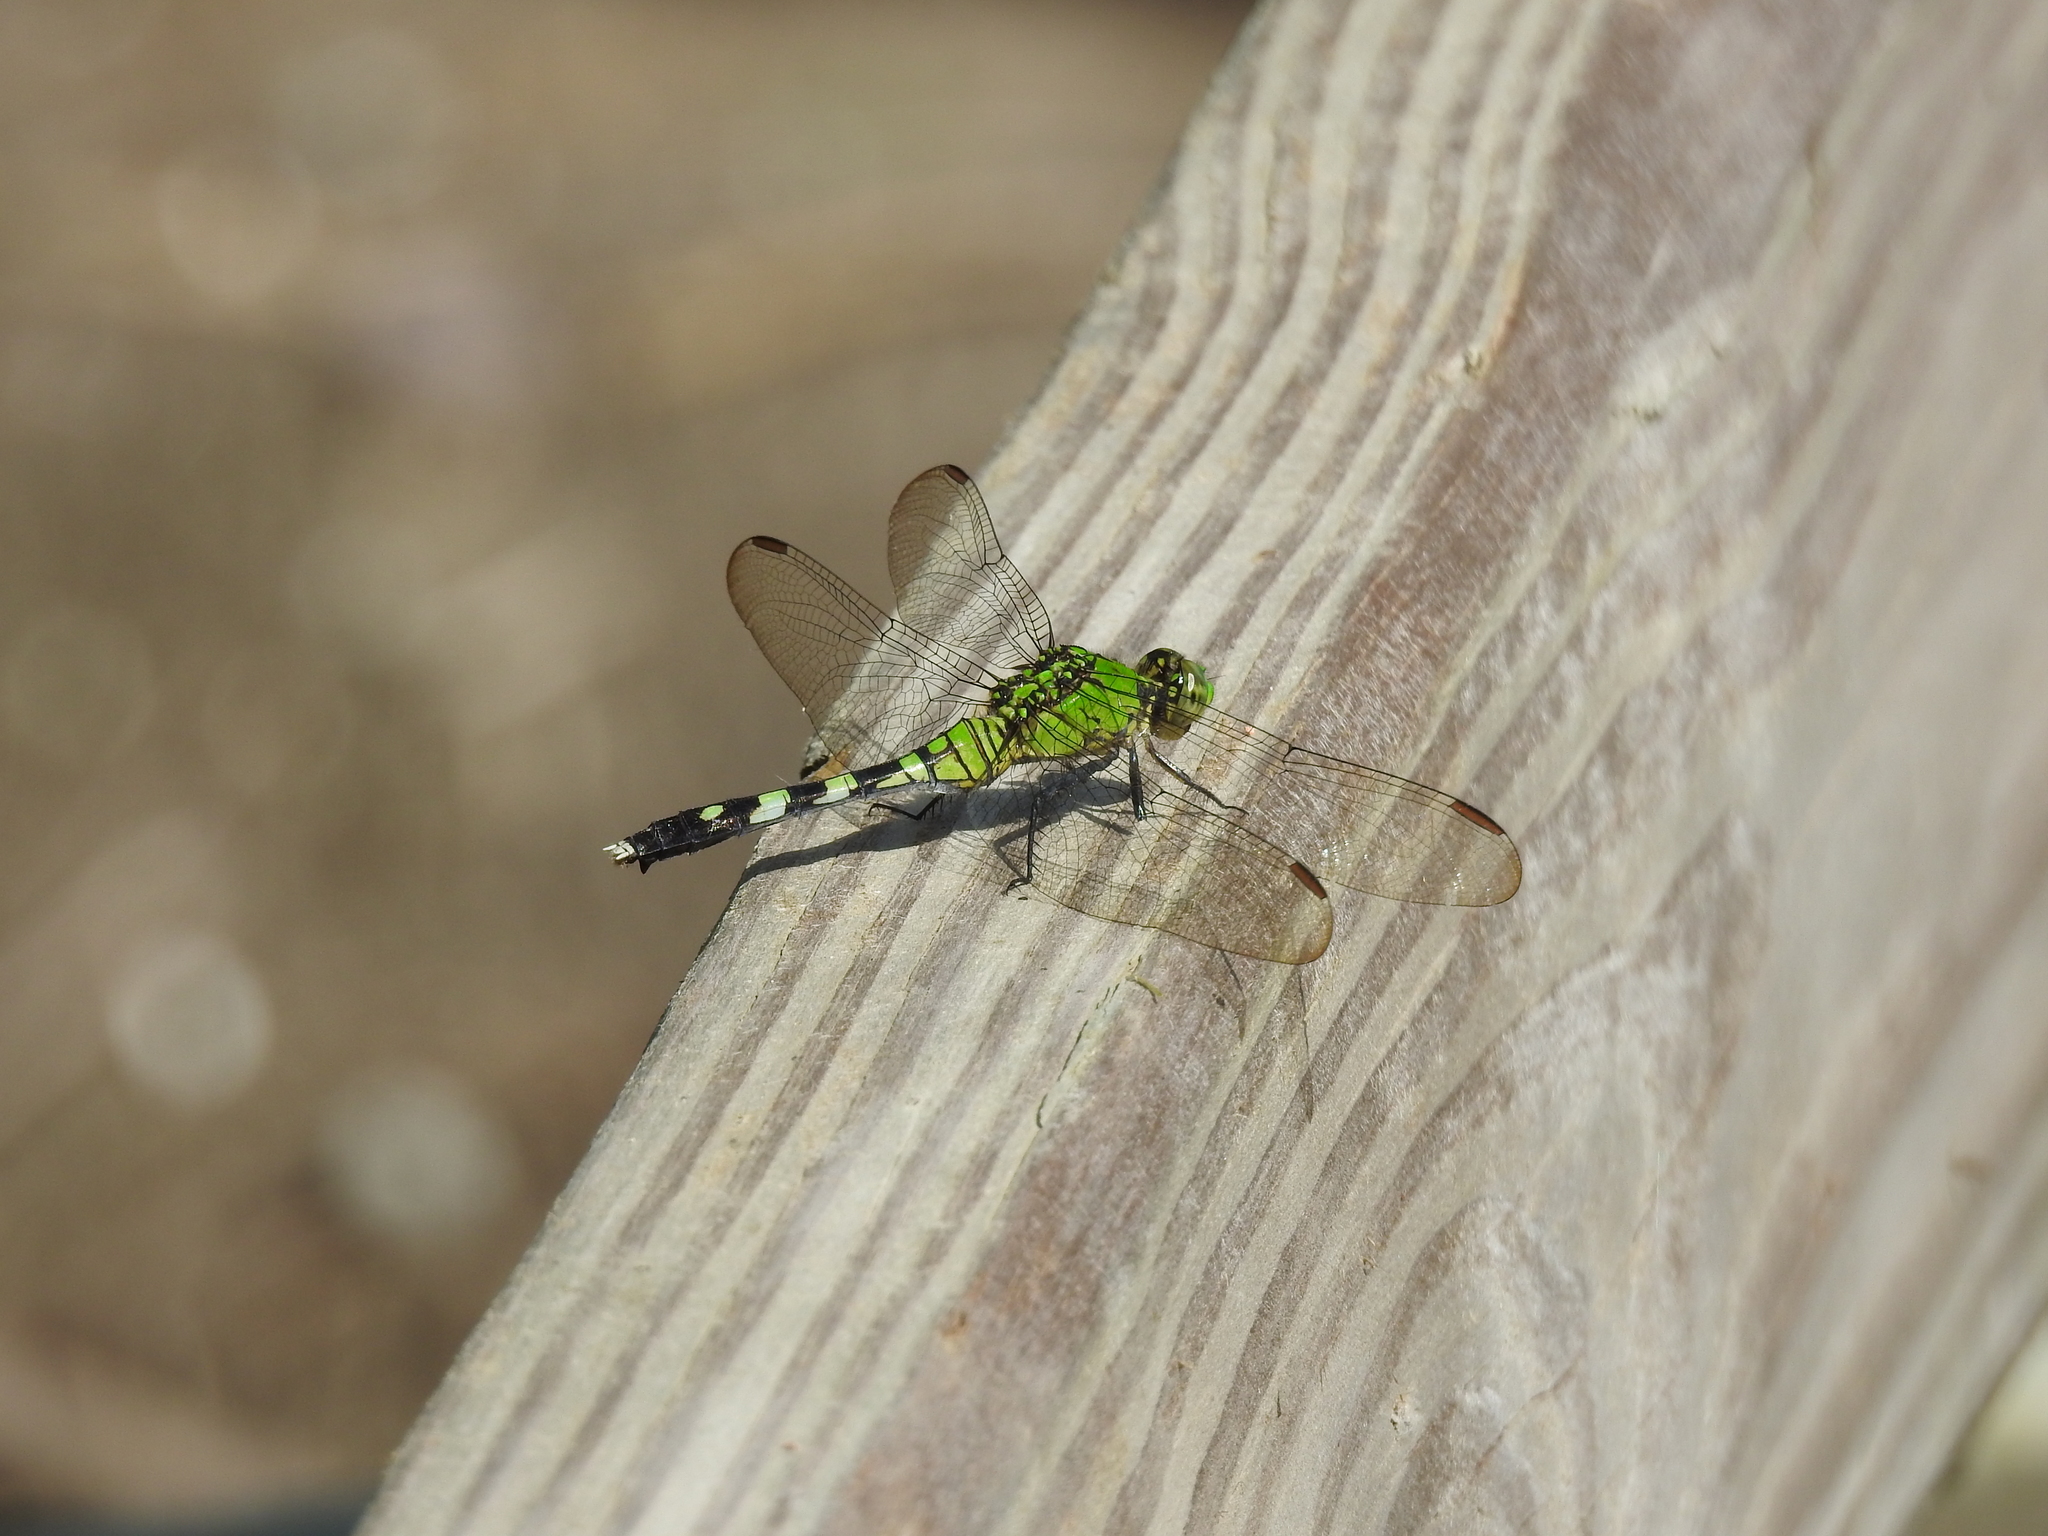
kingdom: Animalia
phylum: Arthropoda
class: Insecta
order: Odonata
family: Libellulidae
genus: Erythemis
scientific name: Erythemis simplicicollis
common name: Eastern pondhawk
